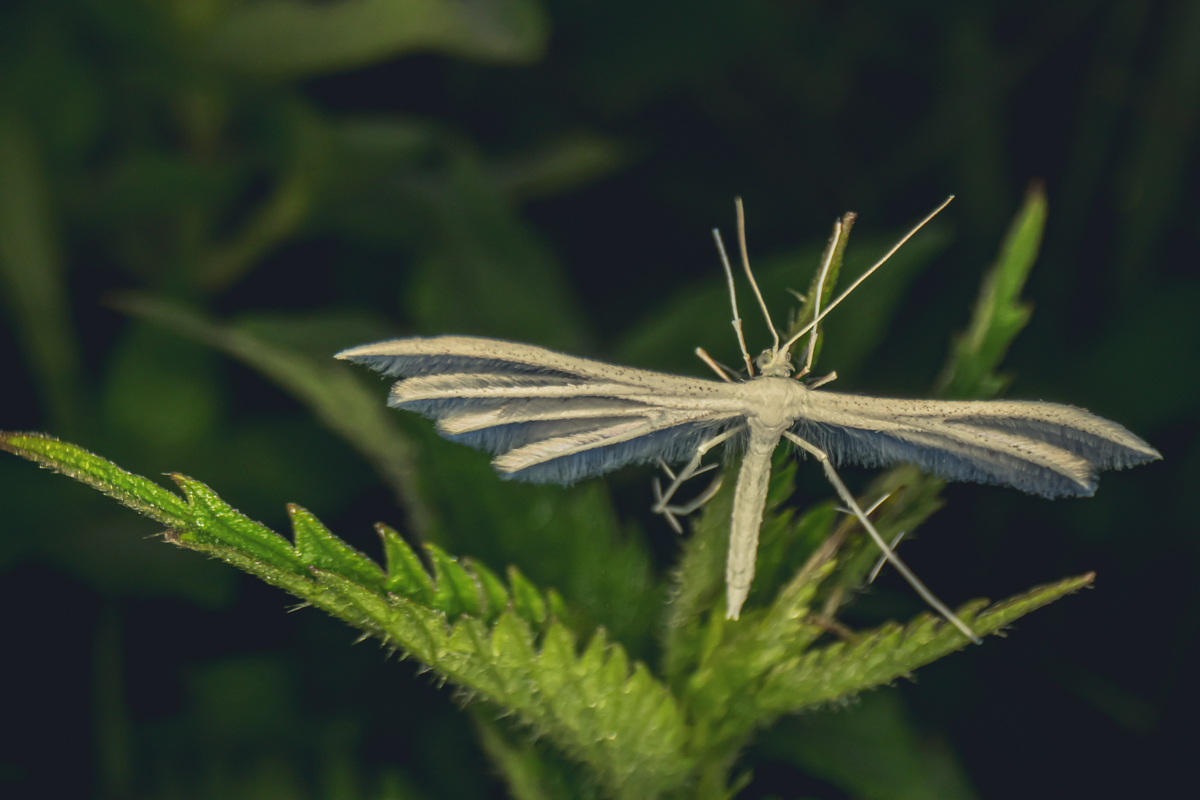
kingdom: Animalia
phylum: Arthropoda
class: Insecta
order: Lepidoptera
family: Pterophoridae
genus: Pterophorus
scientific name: Pterophorus pentadactyla
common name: White plume moth
